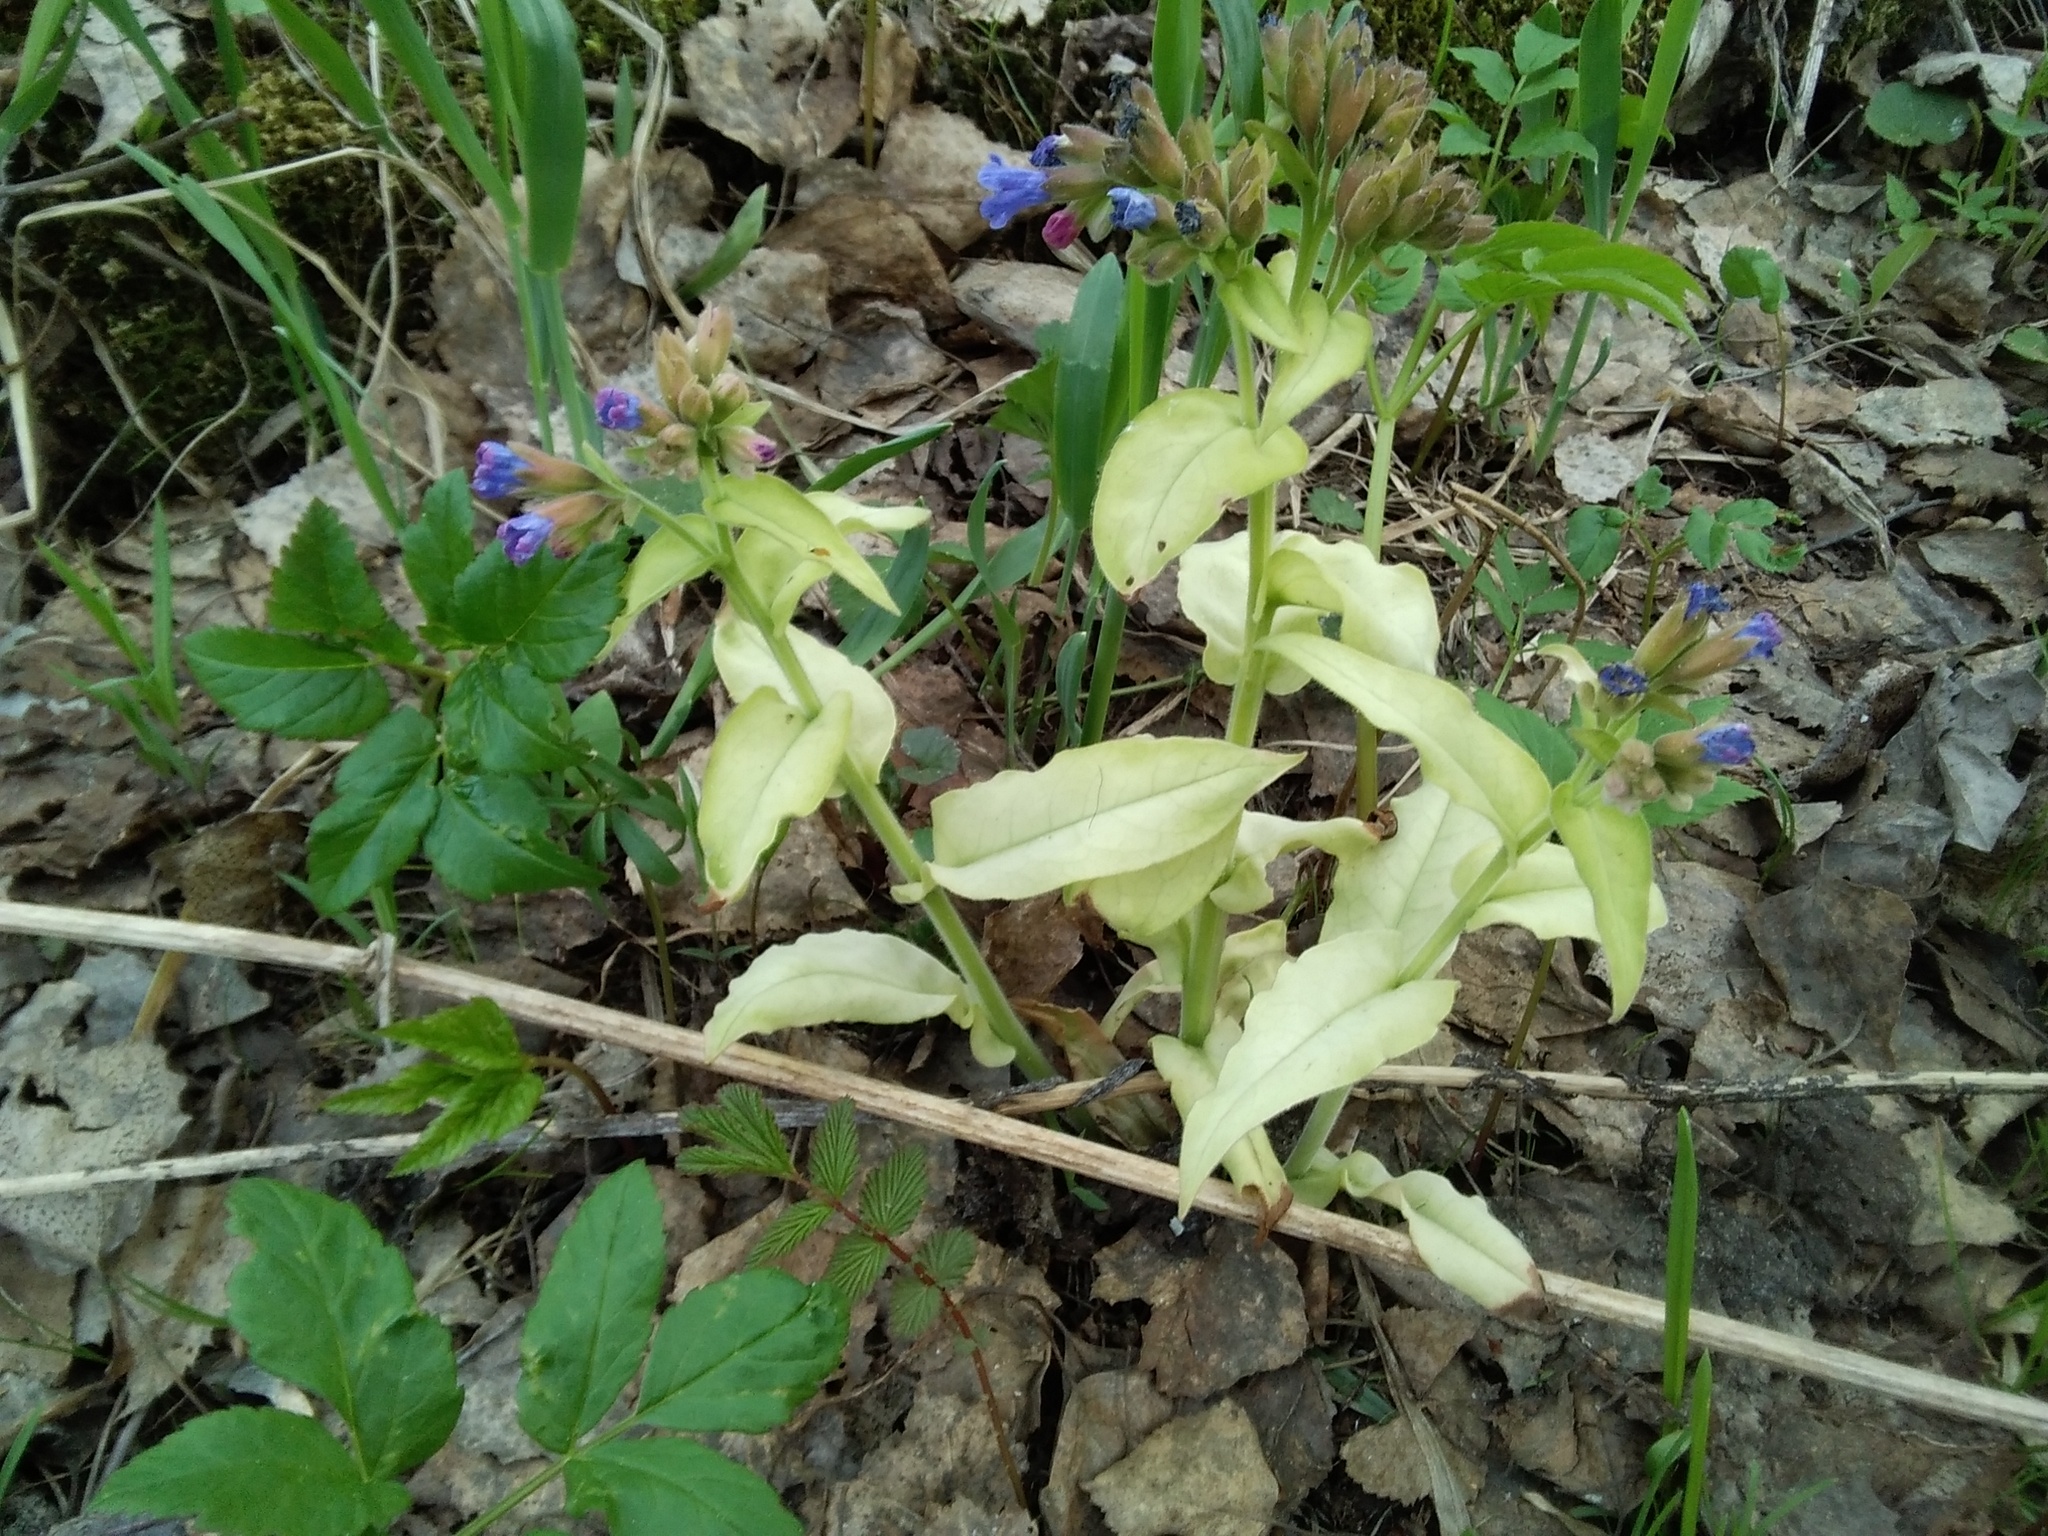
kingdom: Plantae
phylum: Tracheophyta
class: Magnoliopsida
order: Boraginales
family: Boraginaceae
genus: Pulmonaria
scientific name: Pulmonaria mollis
